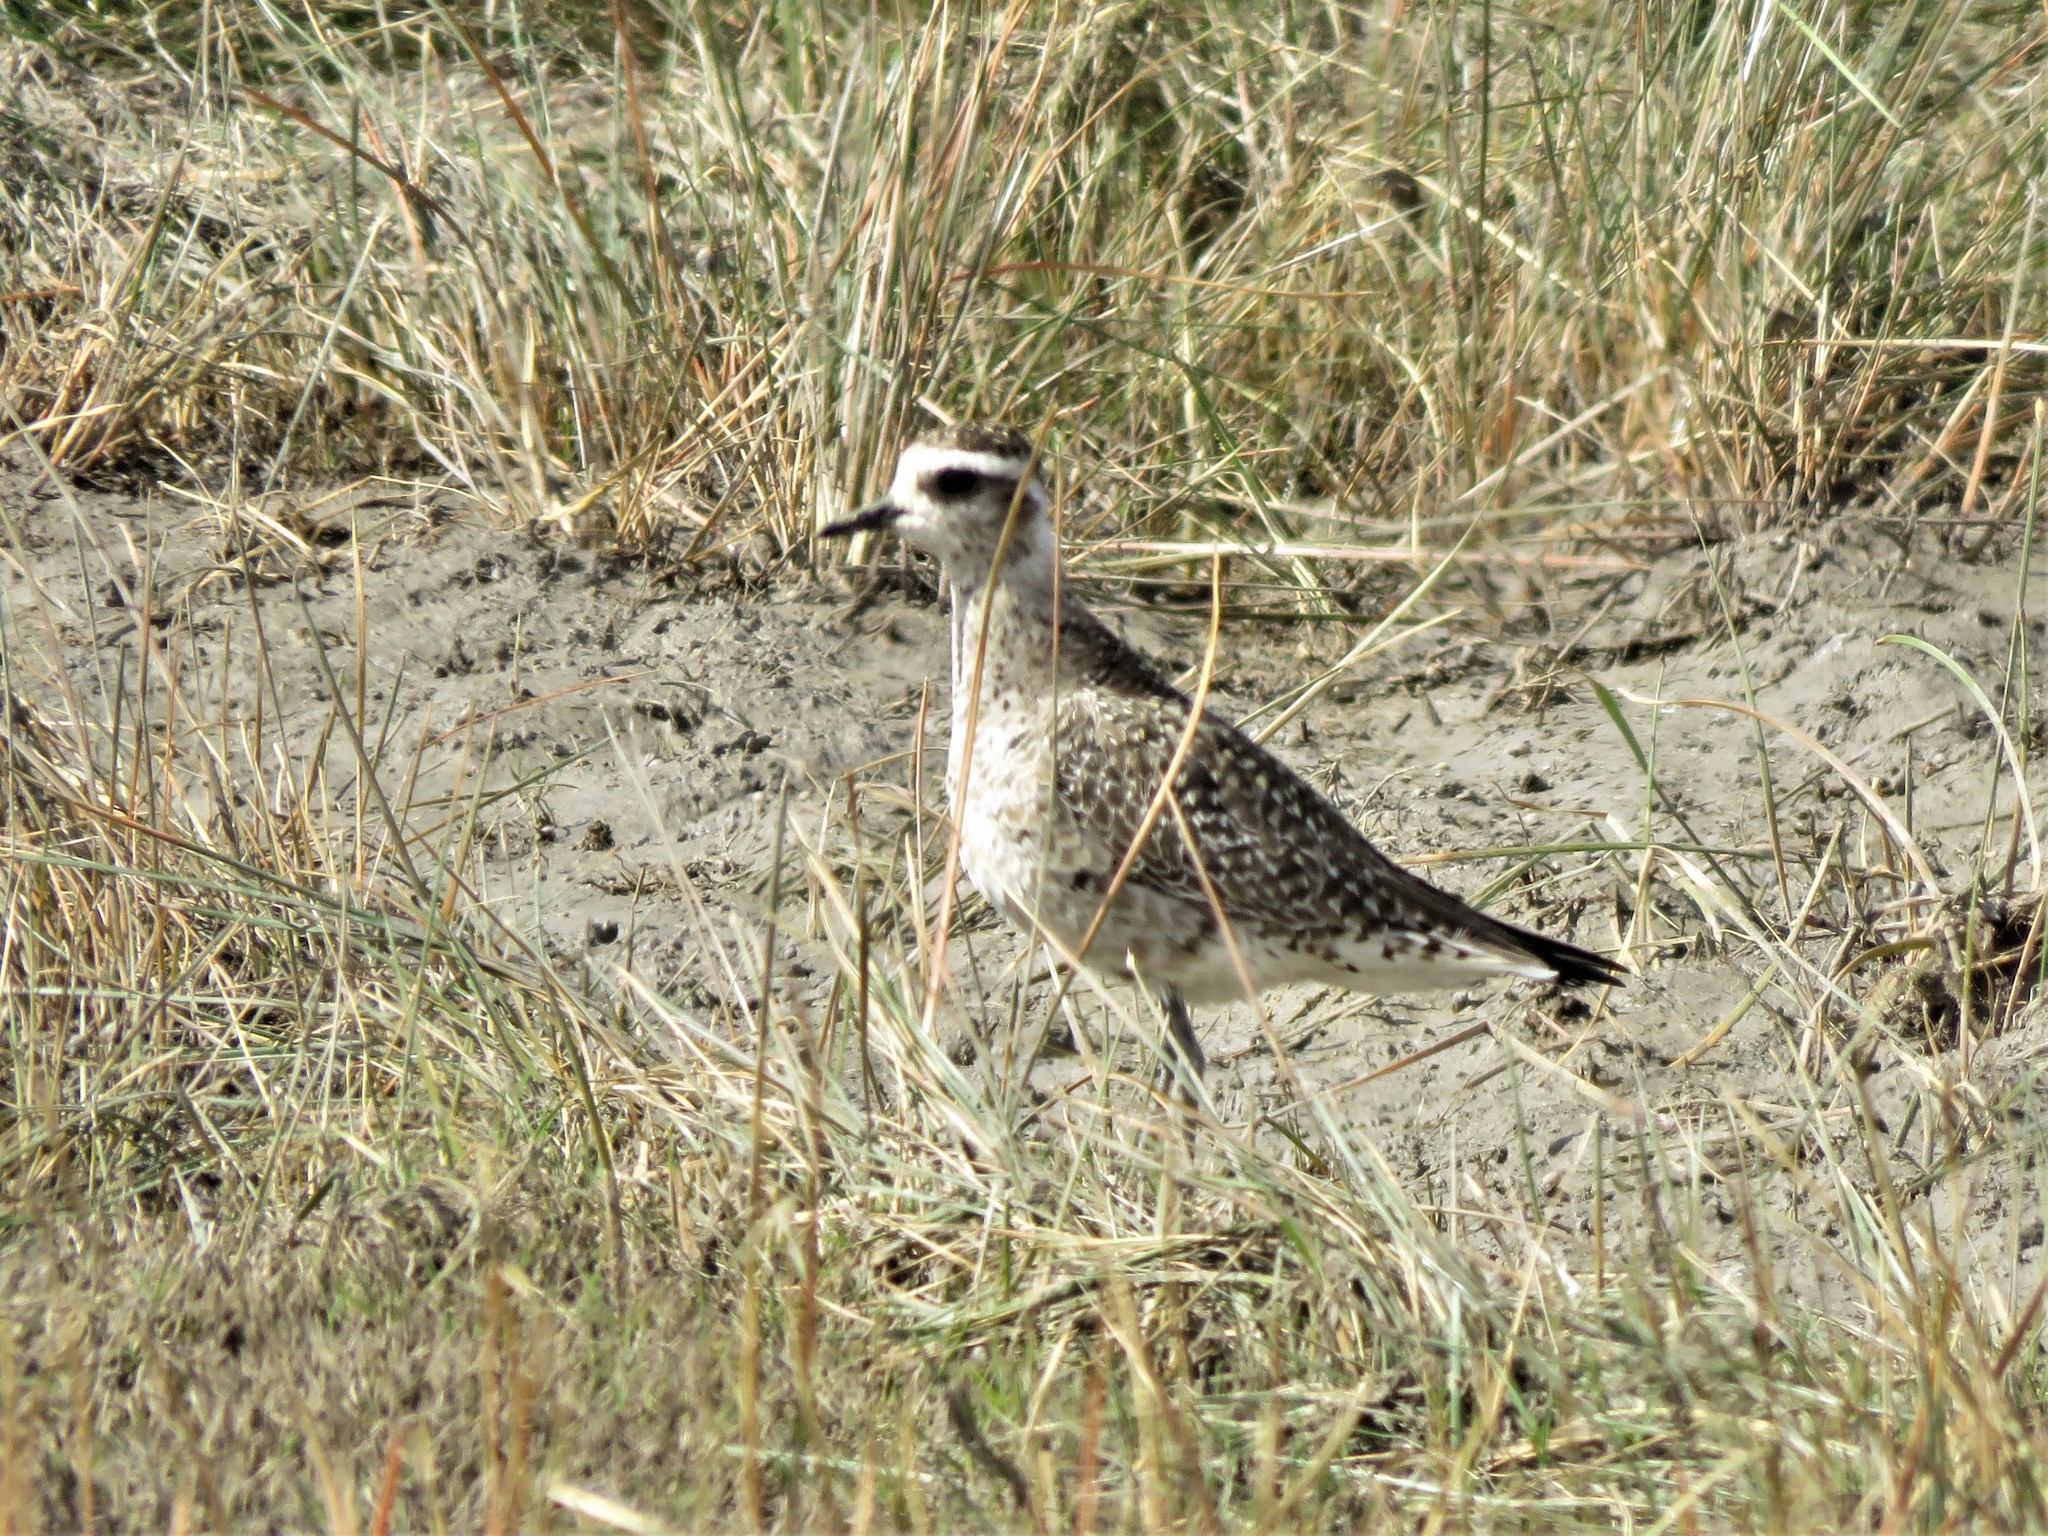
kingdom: Animalia
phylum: Chordata
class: Aves
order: Charadriiformes
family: Charadriidae
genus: Pluvialis
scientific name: Pluvialis dominica
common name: American golden plover
